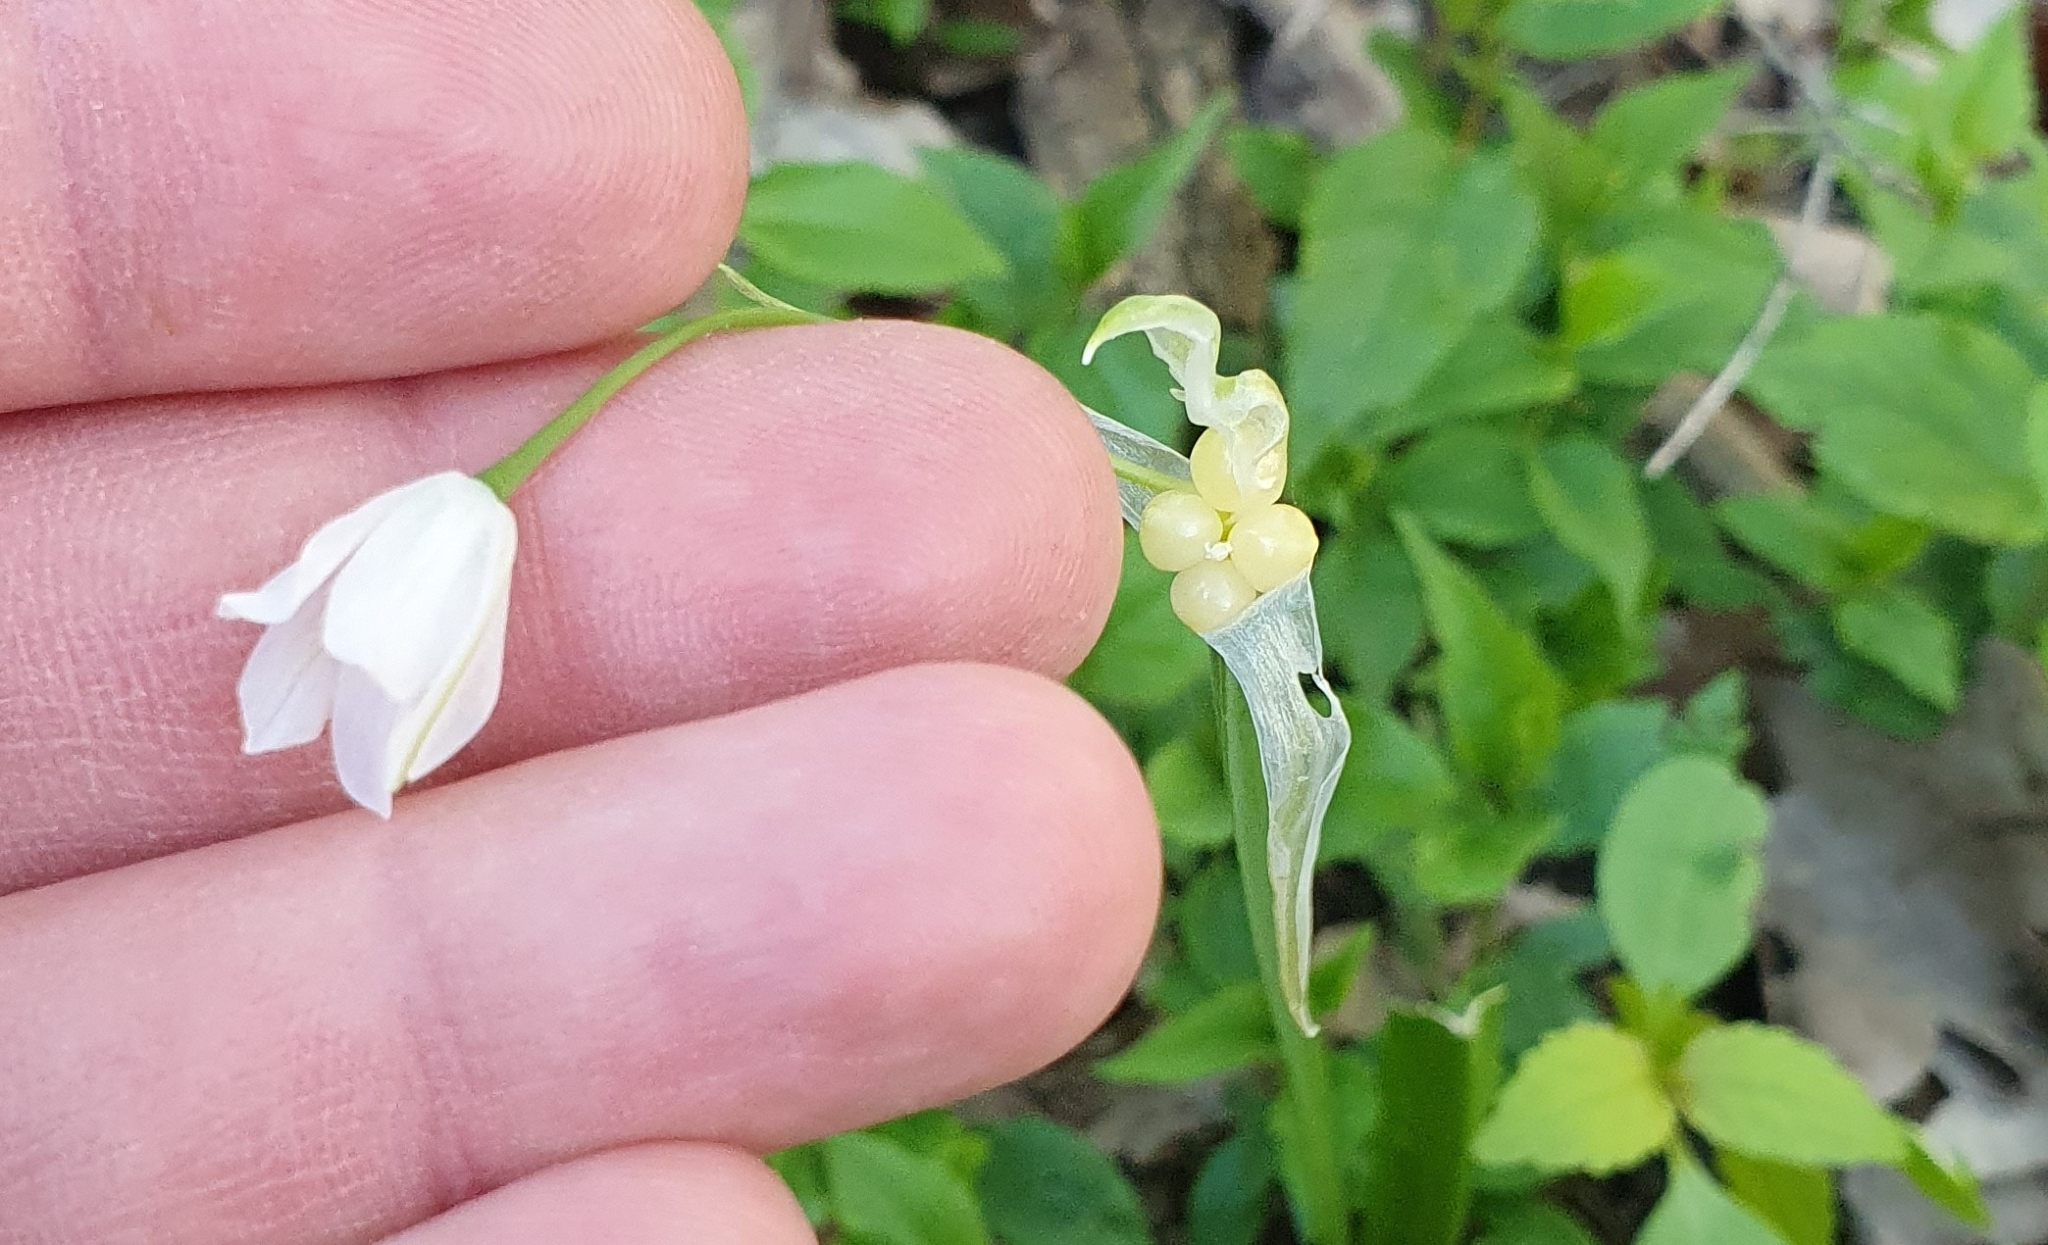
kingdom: Plantae
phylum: Tracheophyta
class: Liliopsida
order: Asparagales
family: Amaryllidaceae
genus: Allium
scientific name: Allium paradoxum
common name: Few-flowered garlic
